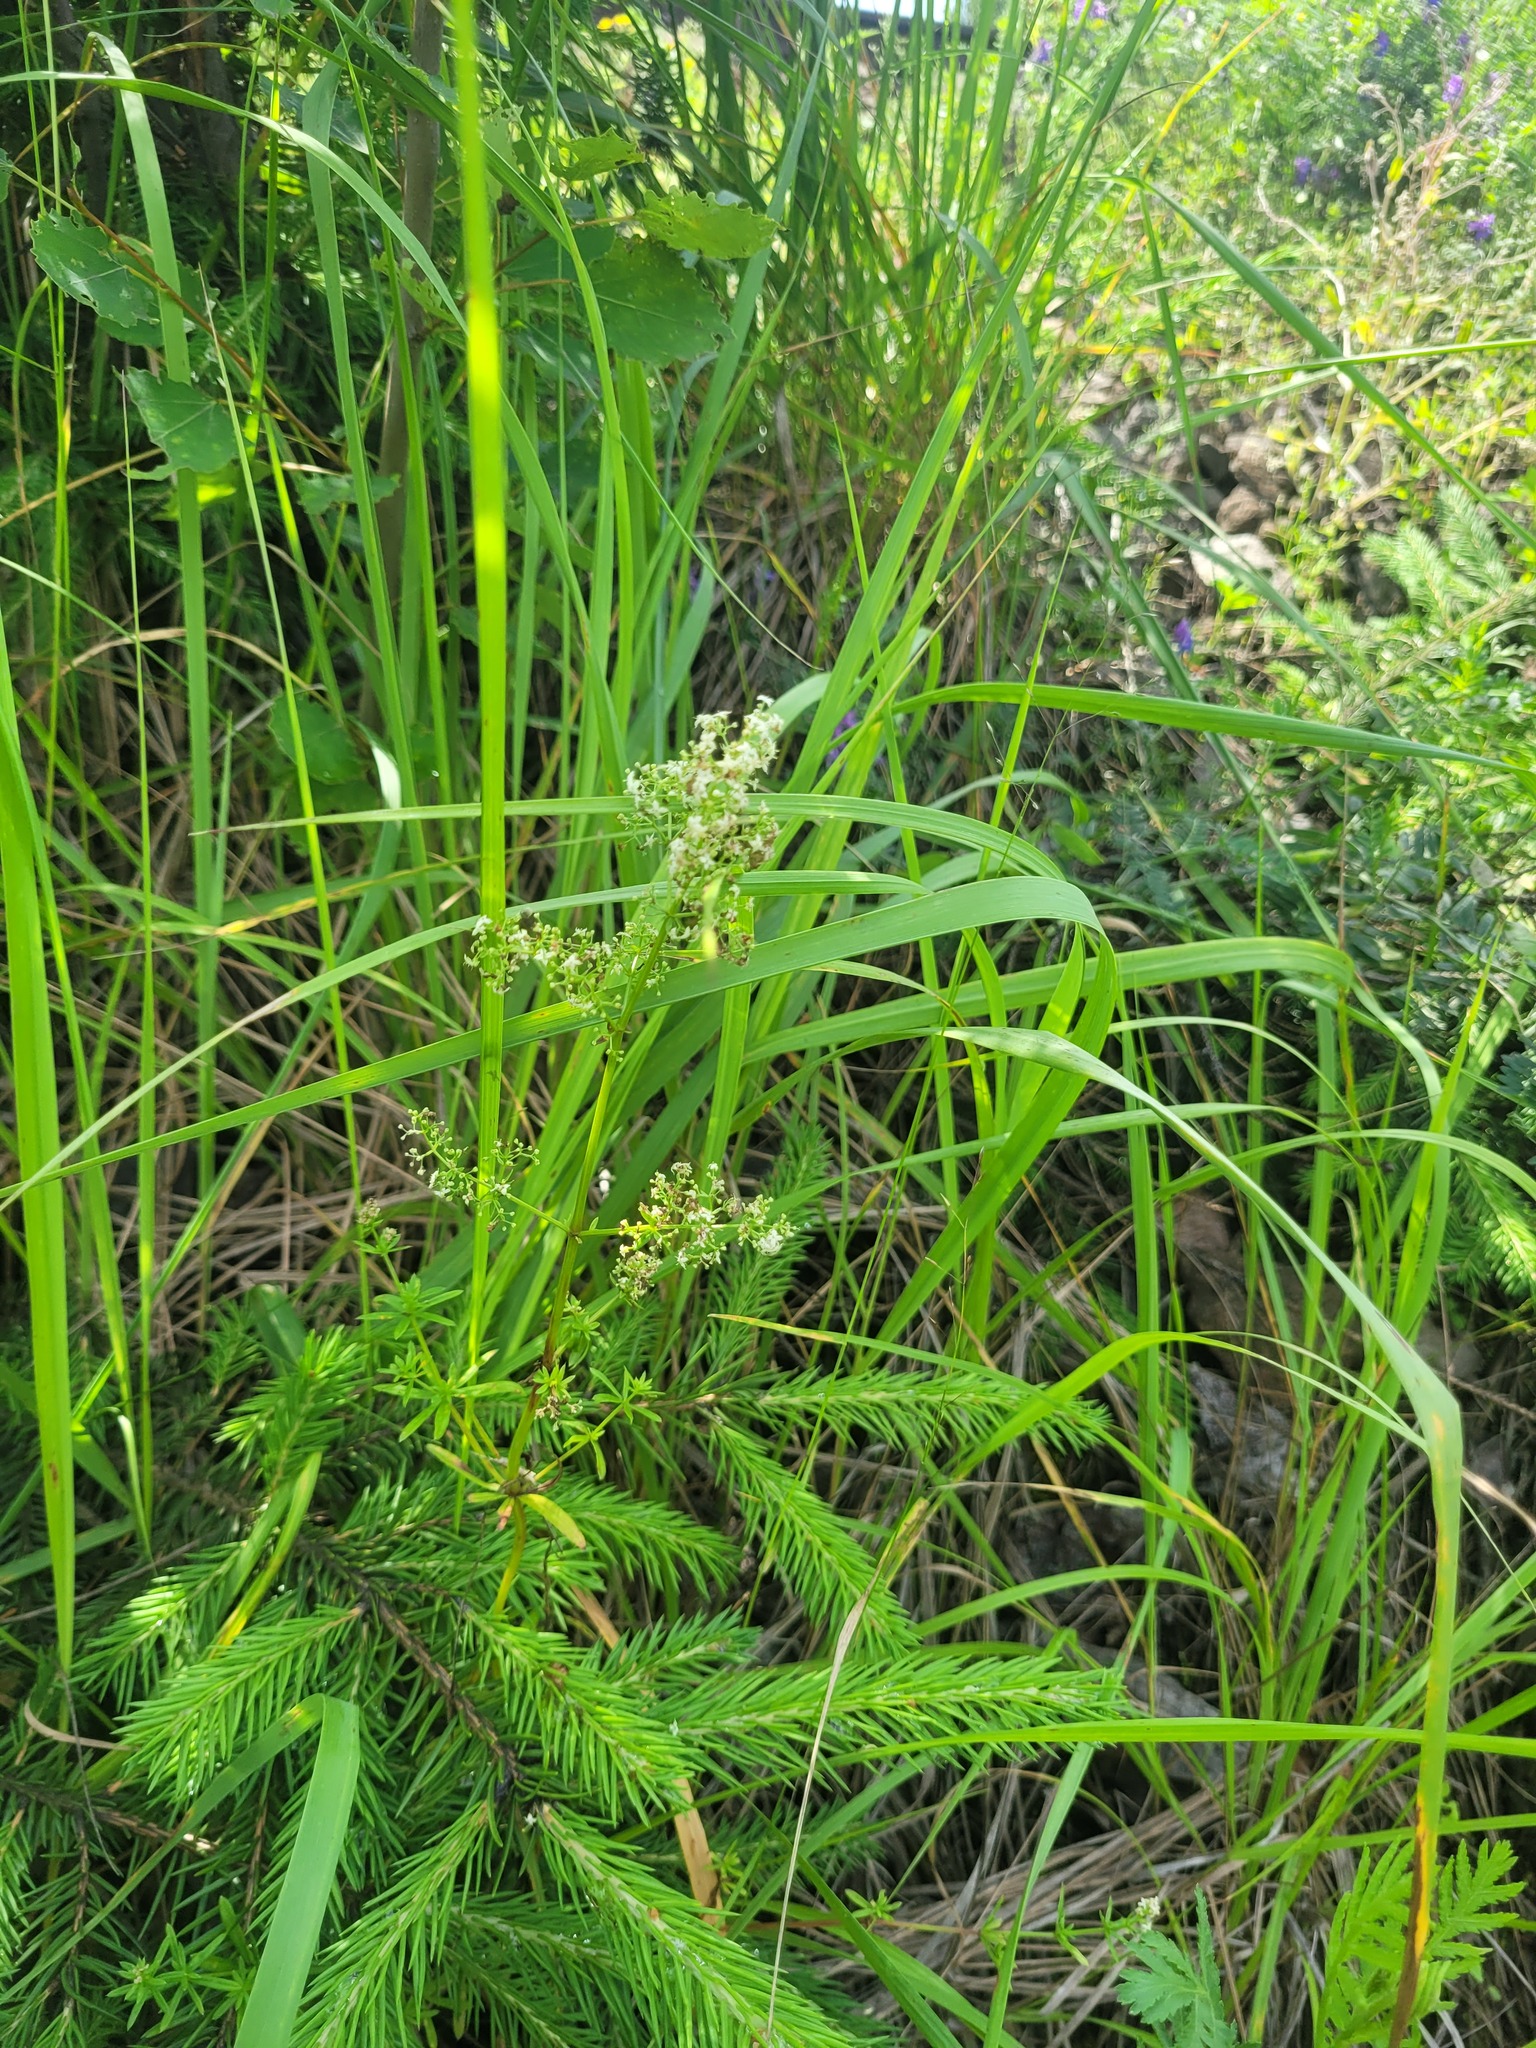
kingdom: Plantae
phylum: Tracheophyta
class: Magnoliopsida
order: Gentianales
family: Rubiaceae
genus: Galium
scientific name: Galium mollugo
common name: Hedge bedstraw
